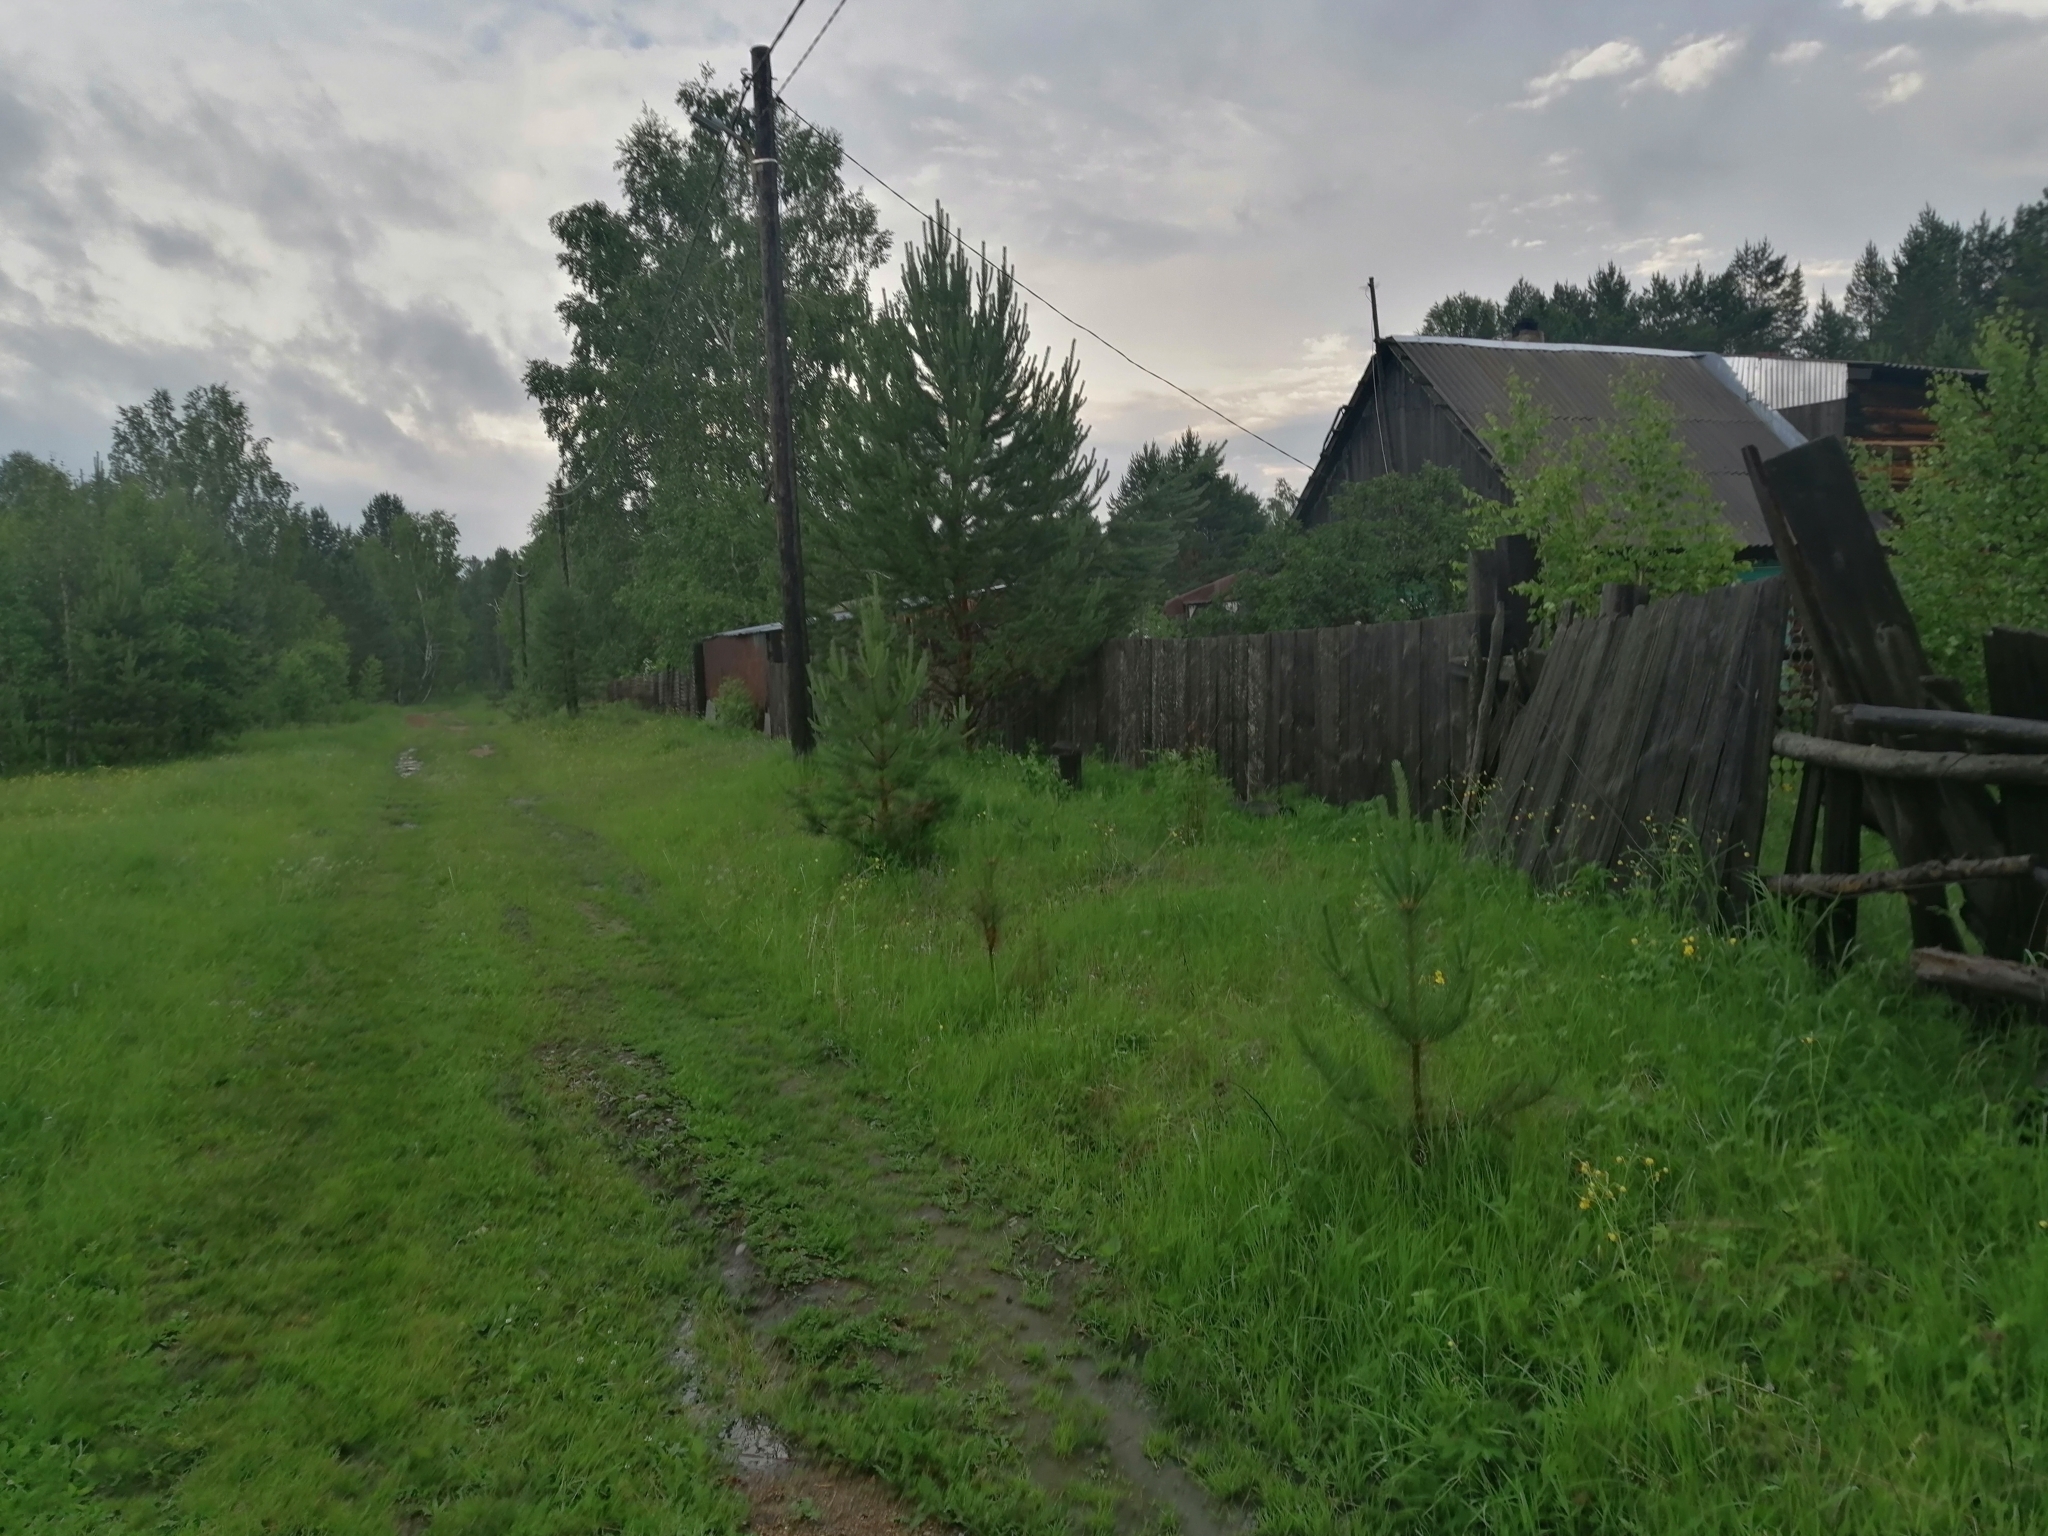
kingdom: Plantae
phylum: Tracheophyta
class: Pinopsida
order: Pinales
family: Pinaceae
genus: Pinus
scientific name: Pinus sylvestris
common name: Scots pine
